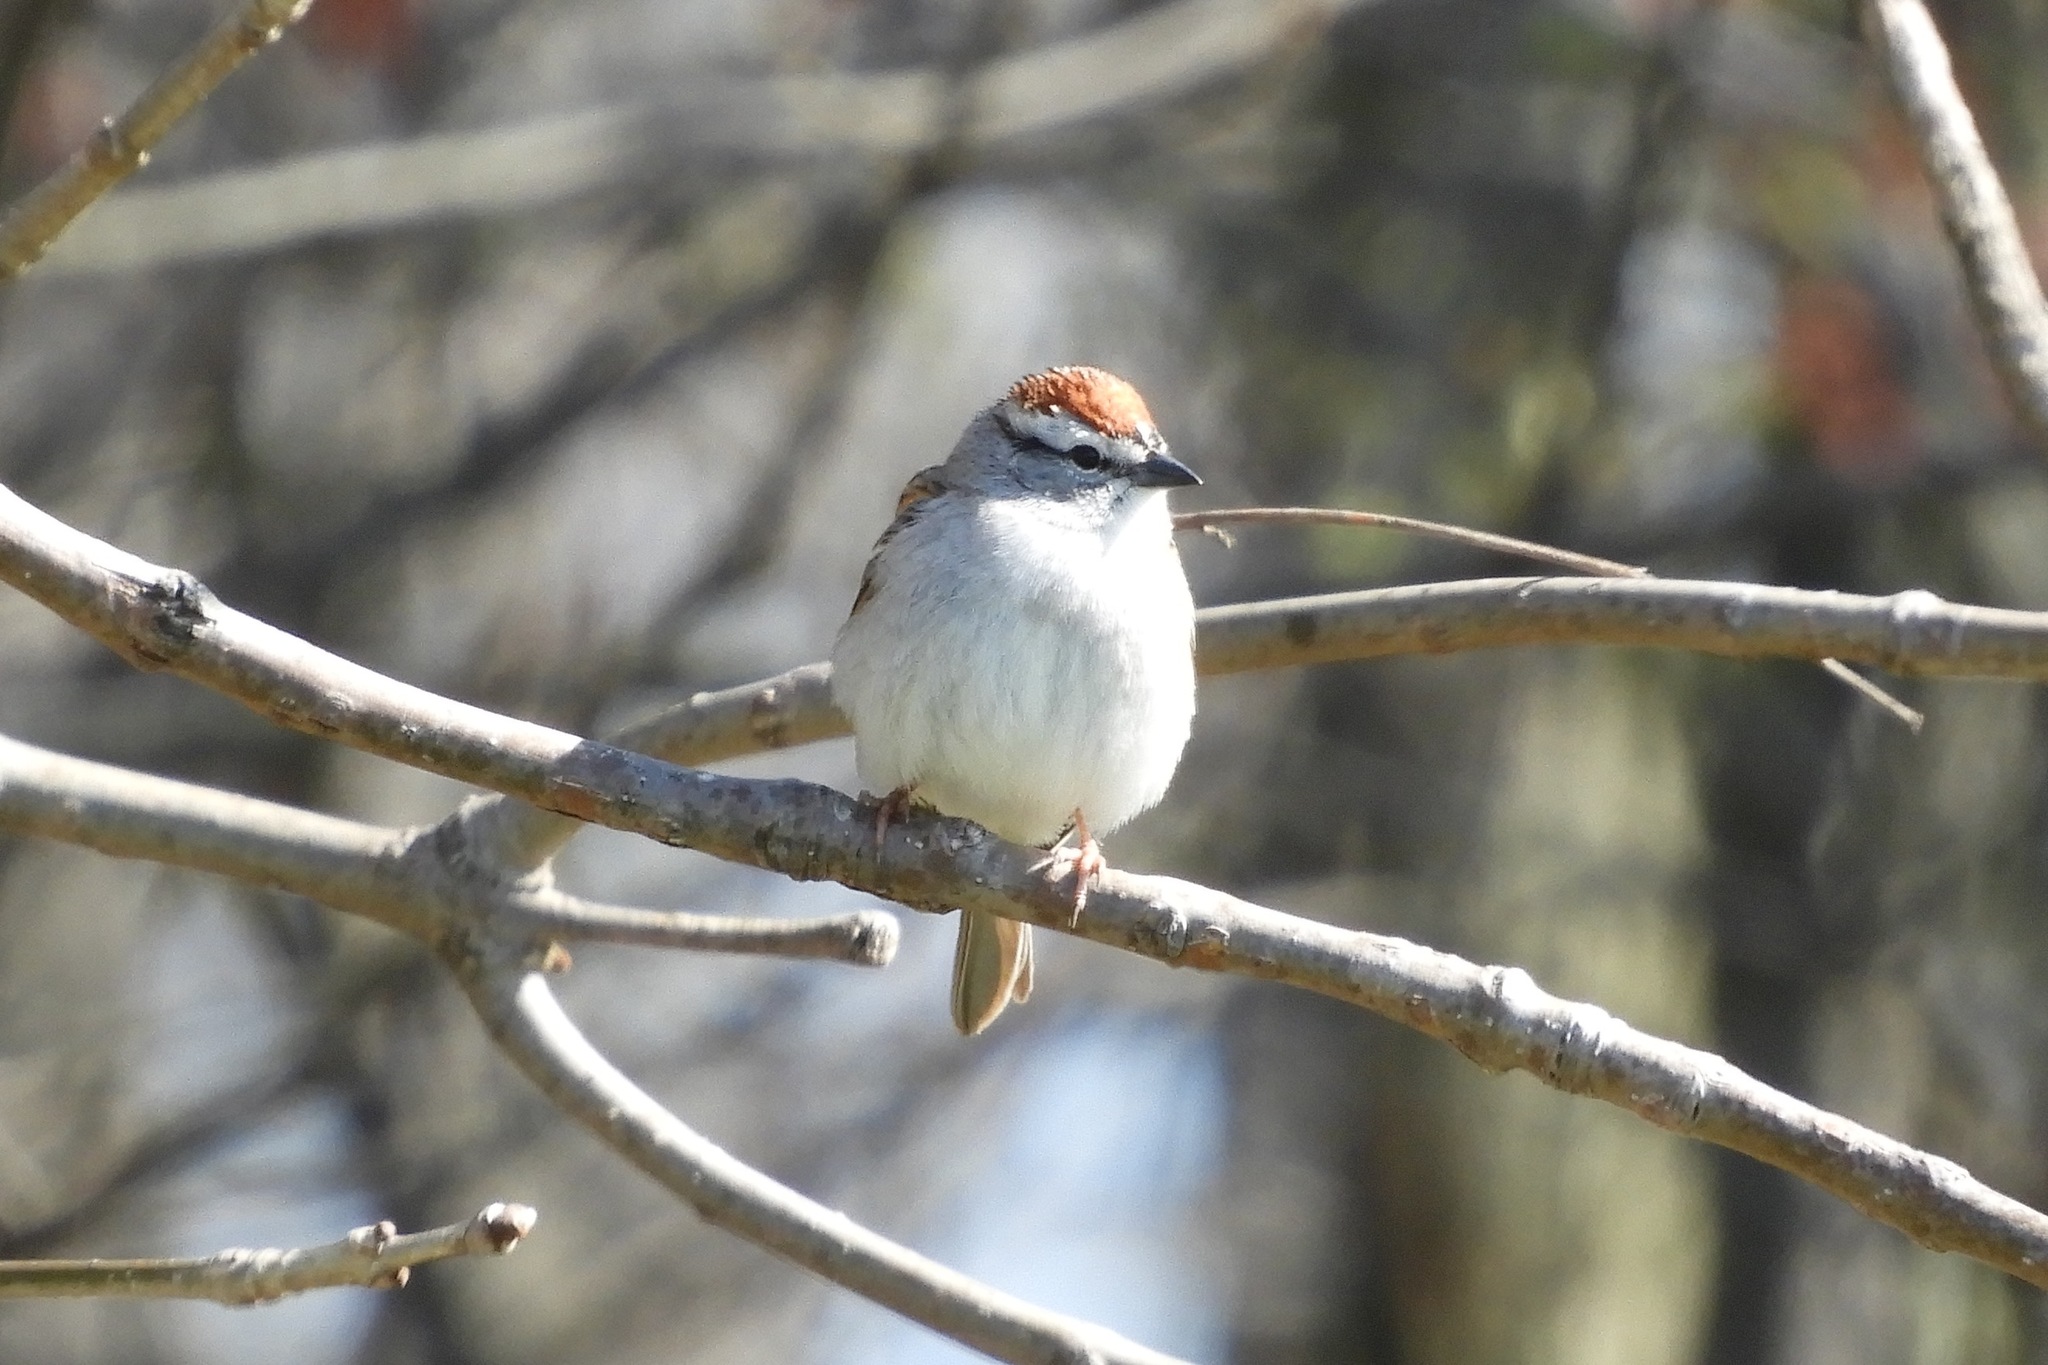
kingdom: Animalia
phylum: Chordata
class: Aves
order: Passeriformes
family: Passerellidae
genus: Spizella
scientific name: Spizella passerina
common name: Chipping sparrow
